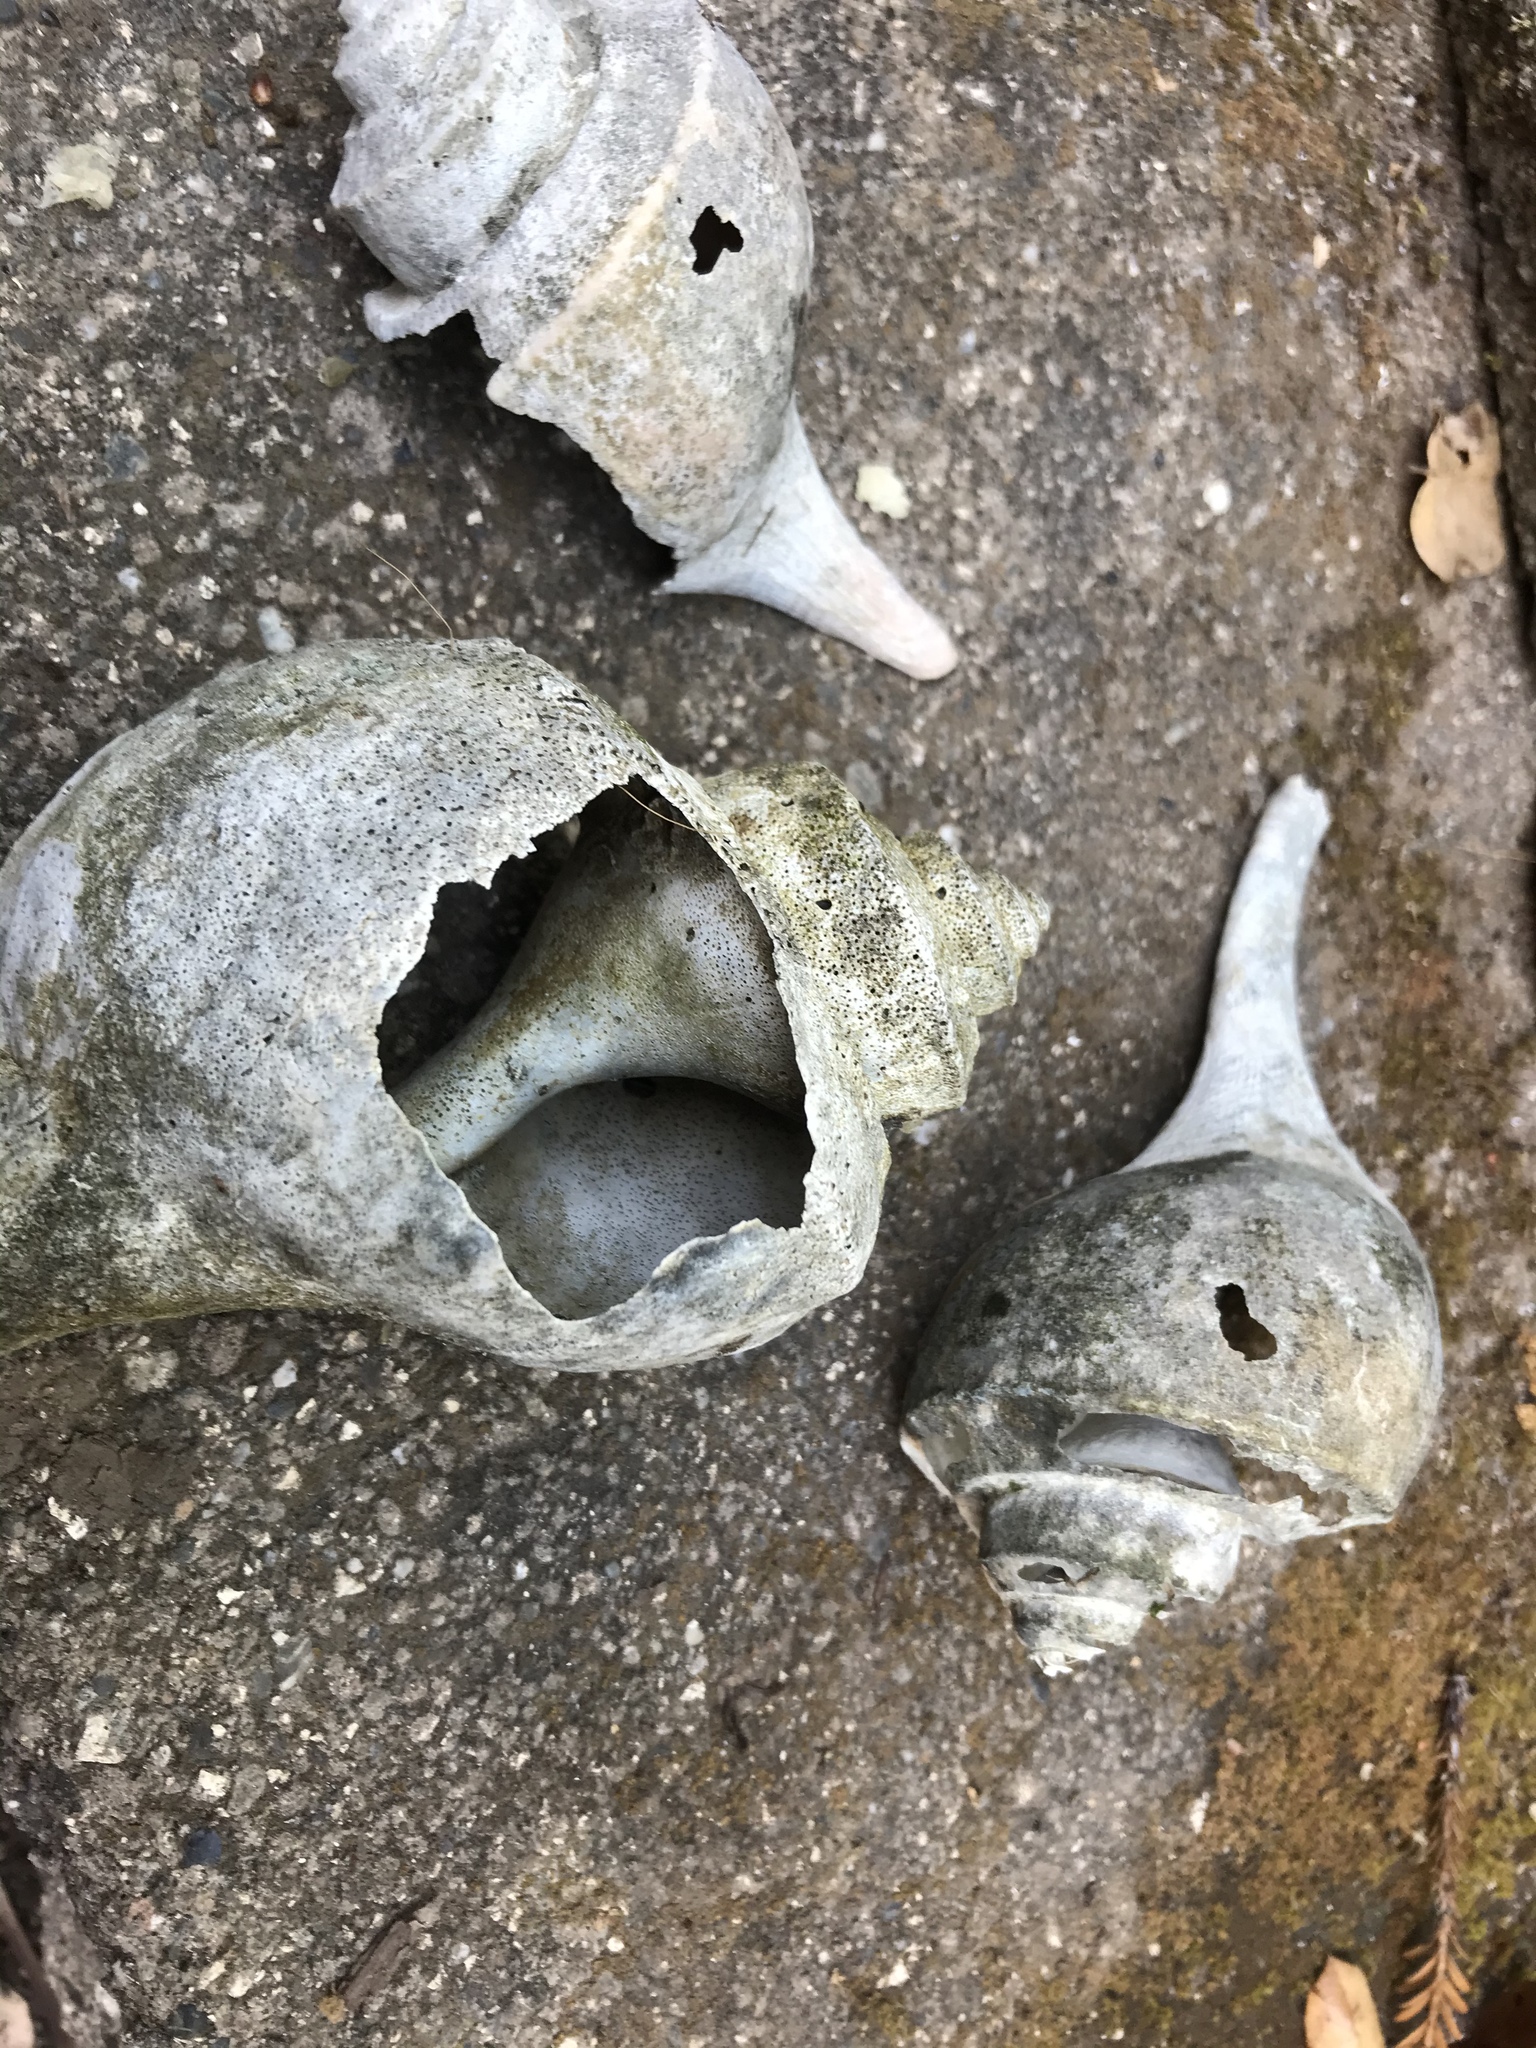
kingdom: Animalia
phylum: Mollusca
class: Gastropoda
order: Neogastropoda
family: Busyconidae
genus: Busycotypus
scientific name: Busycotypus canaliculatus
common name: Channeled whelk
